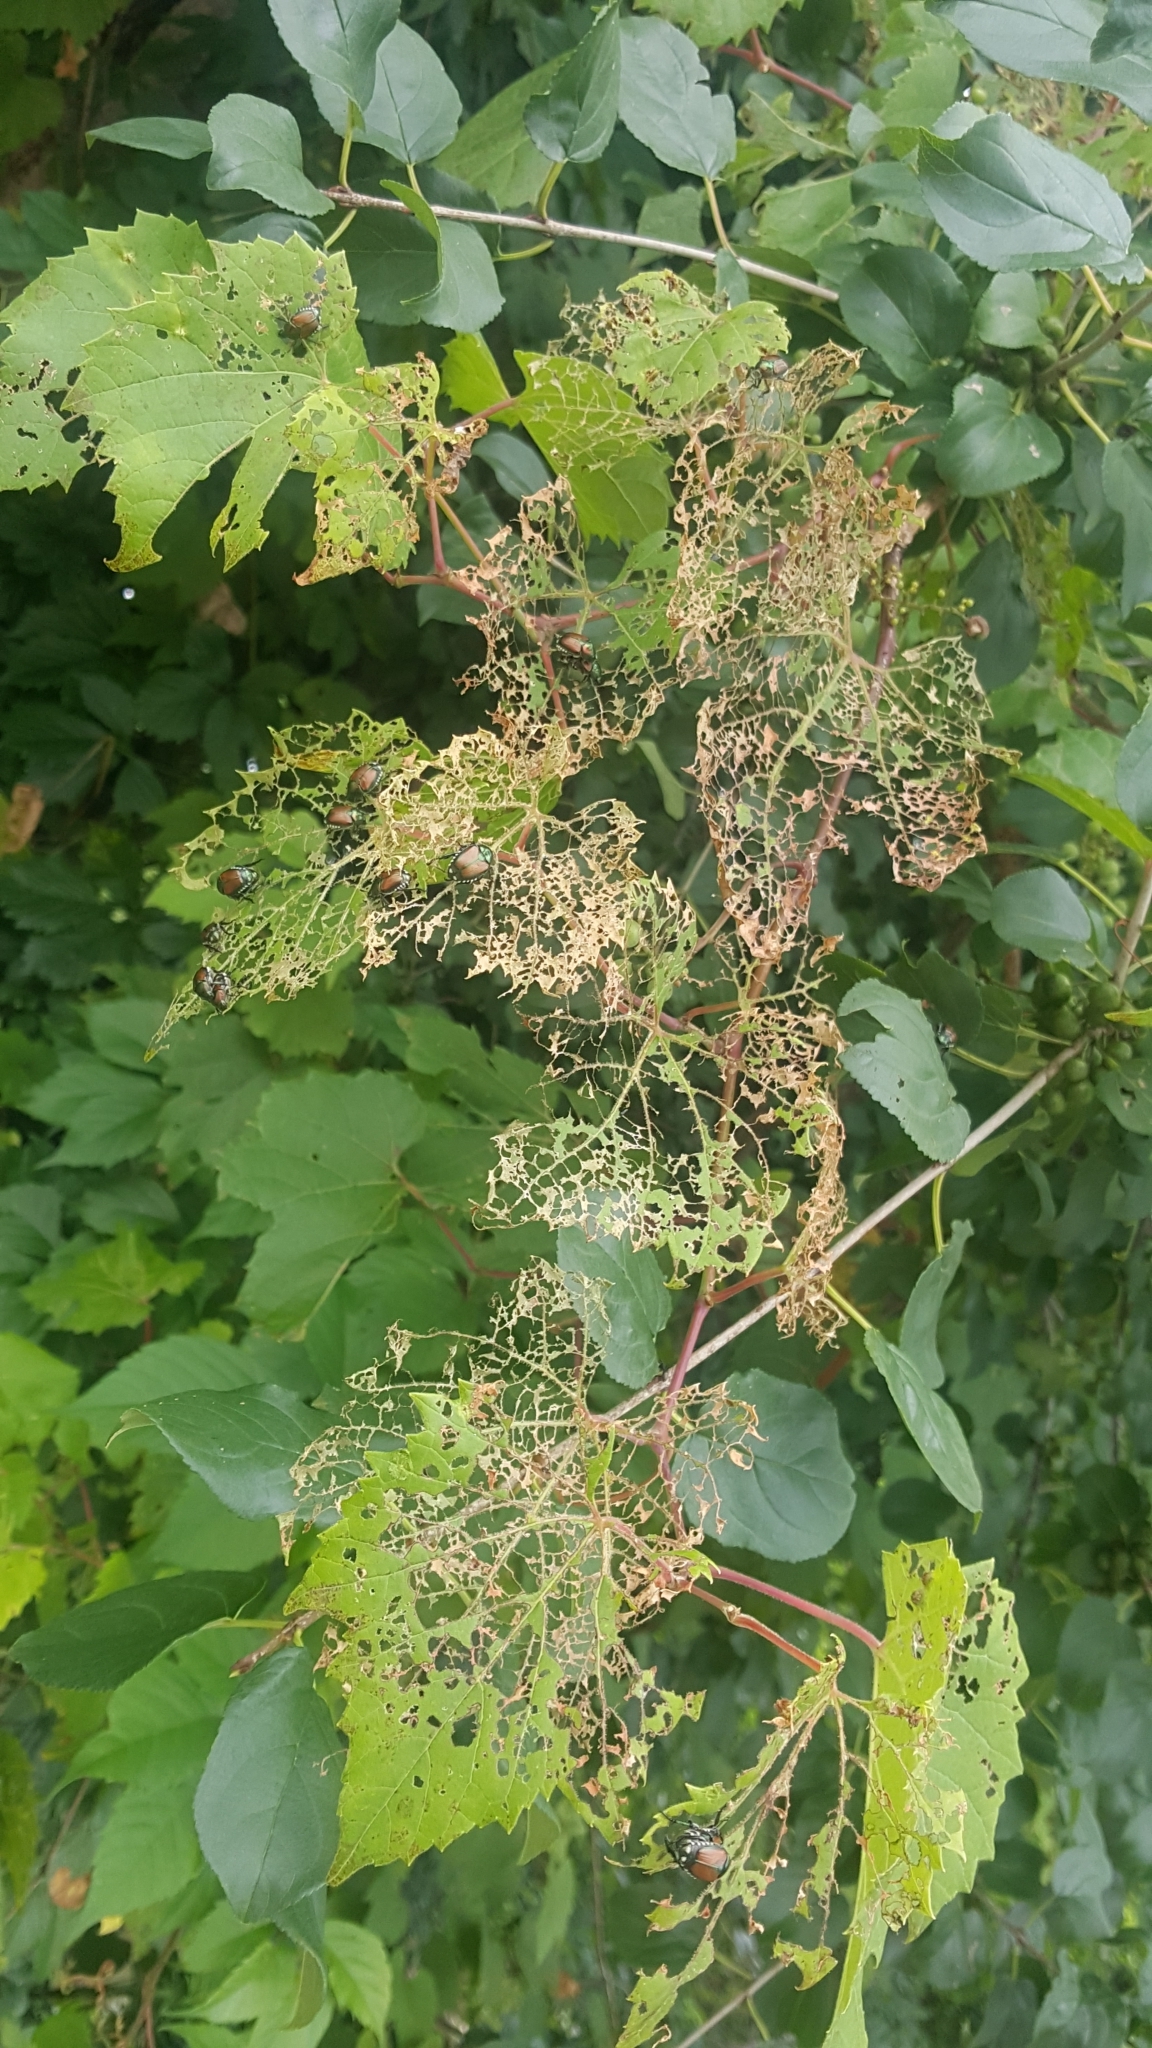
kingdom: Animalia
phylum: Arthropoda
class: Insecta
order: Coleoptera
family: Scarabaeidae
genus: Popillia
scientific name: Popillia japonica
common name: Japanese beetle
